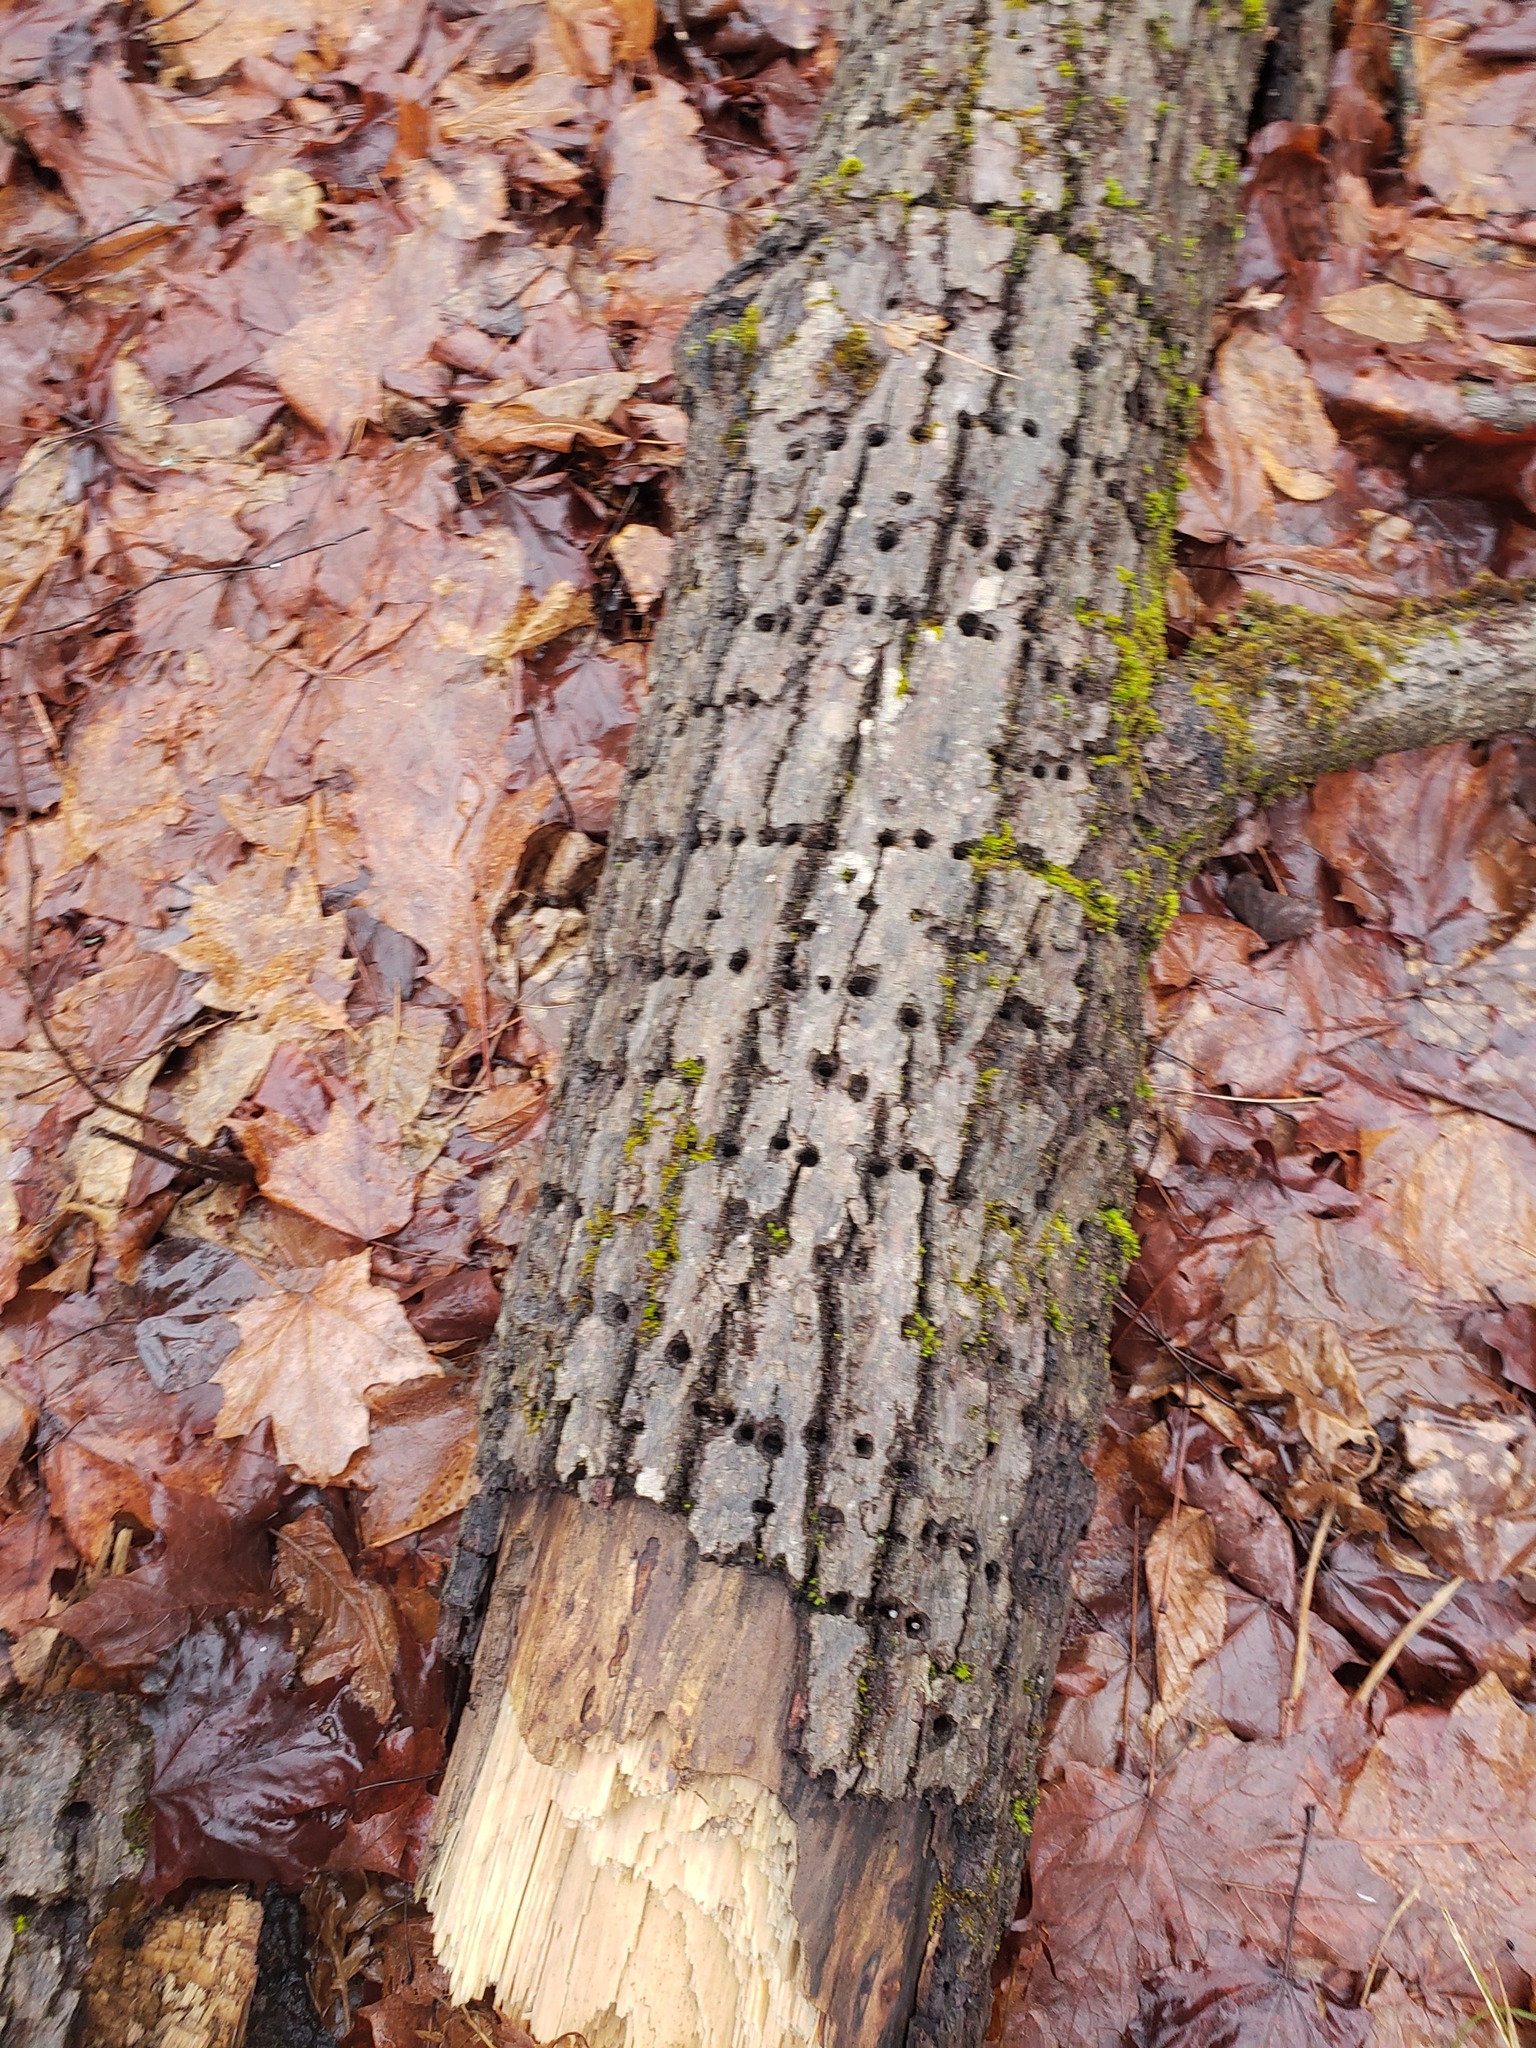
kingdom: Animalia
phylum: Chordata
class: Aves
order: Piciformes
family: Picidae
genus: Sphyrapicus
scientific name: Sphyrapicus varius
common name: Yellow-bellied sapsucker
